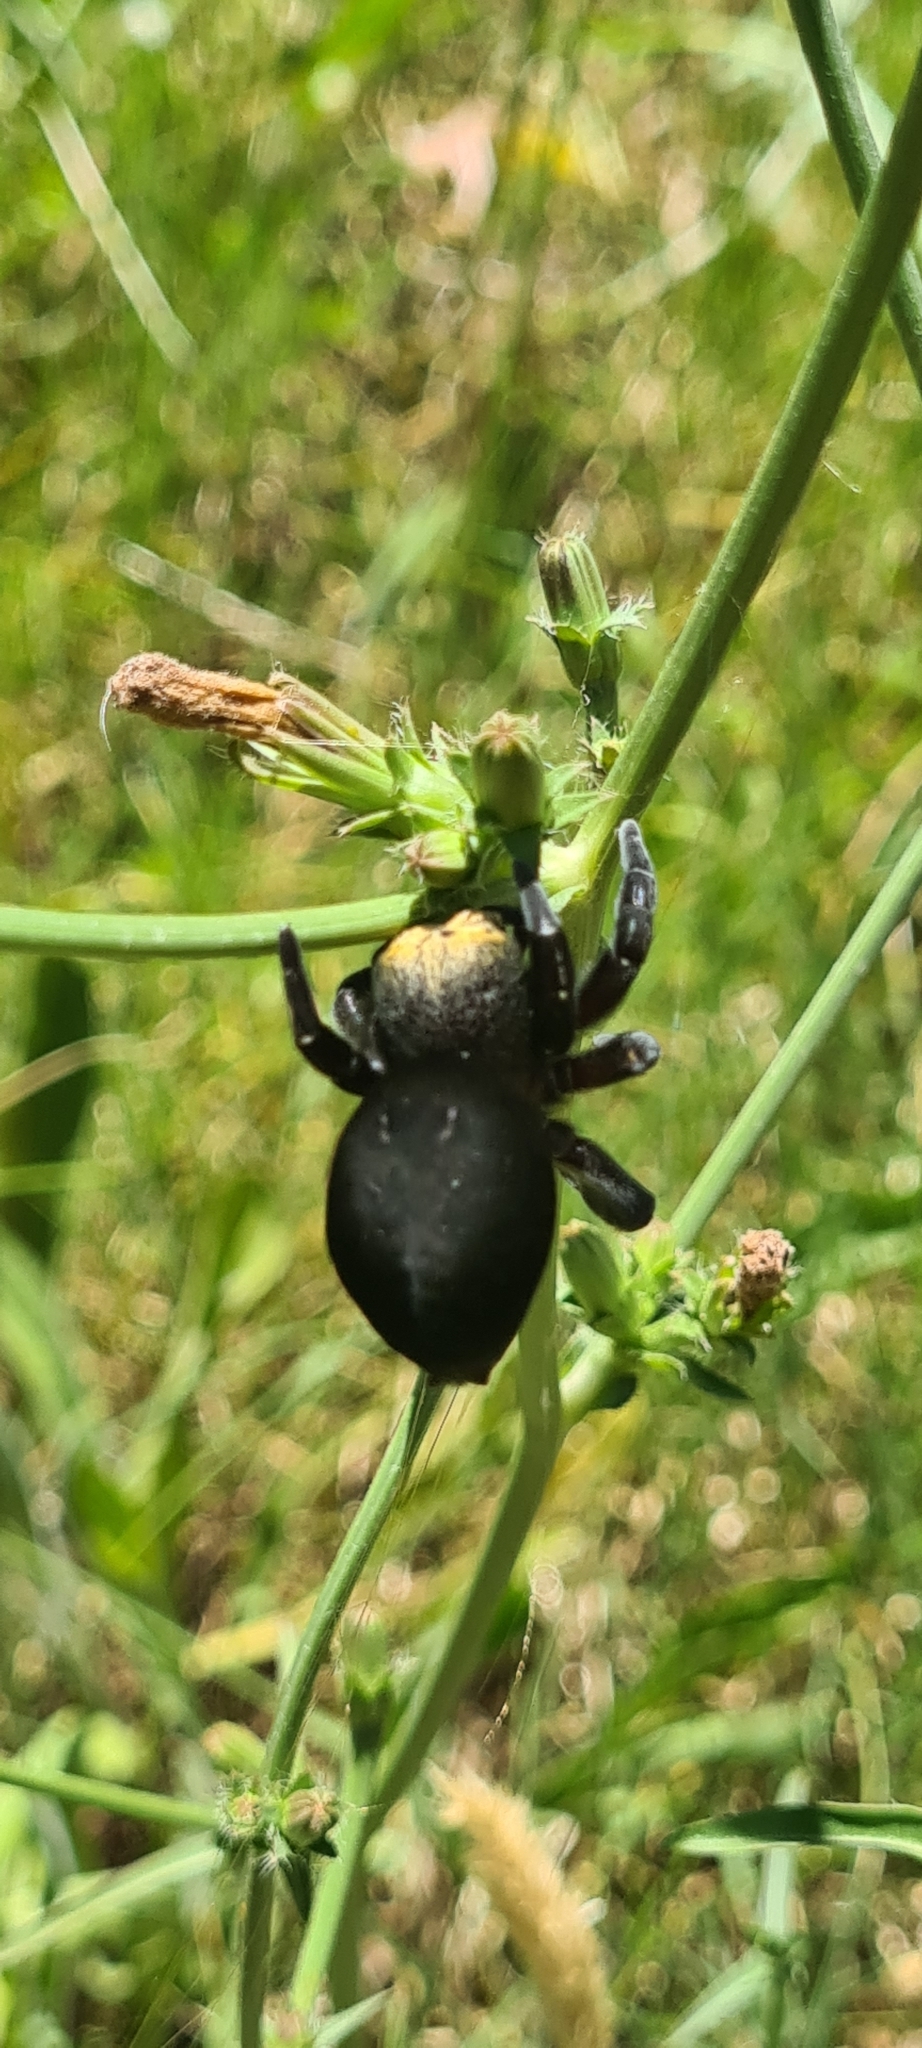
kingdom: Animalia
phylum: Arthropoda
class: Arachnida
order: Araneae
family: Eresidae
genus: Eresus
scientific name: Eresus moravicus
